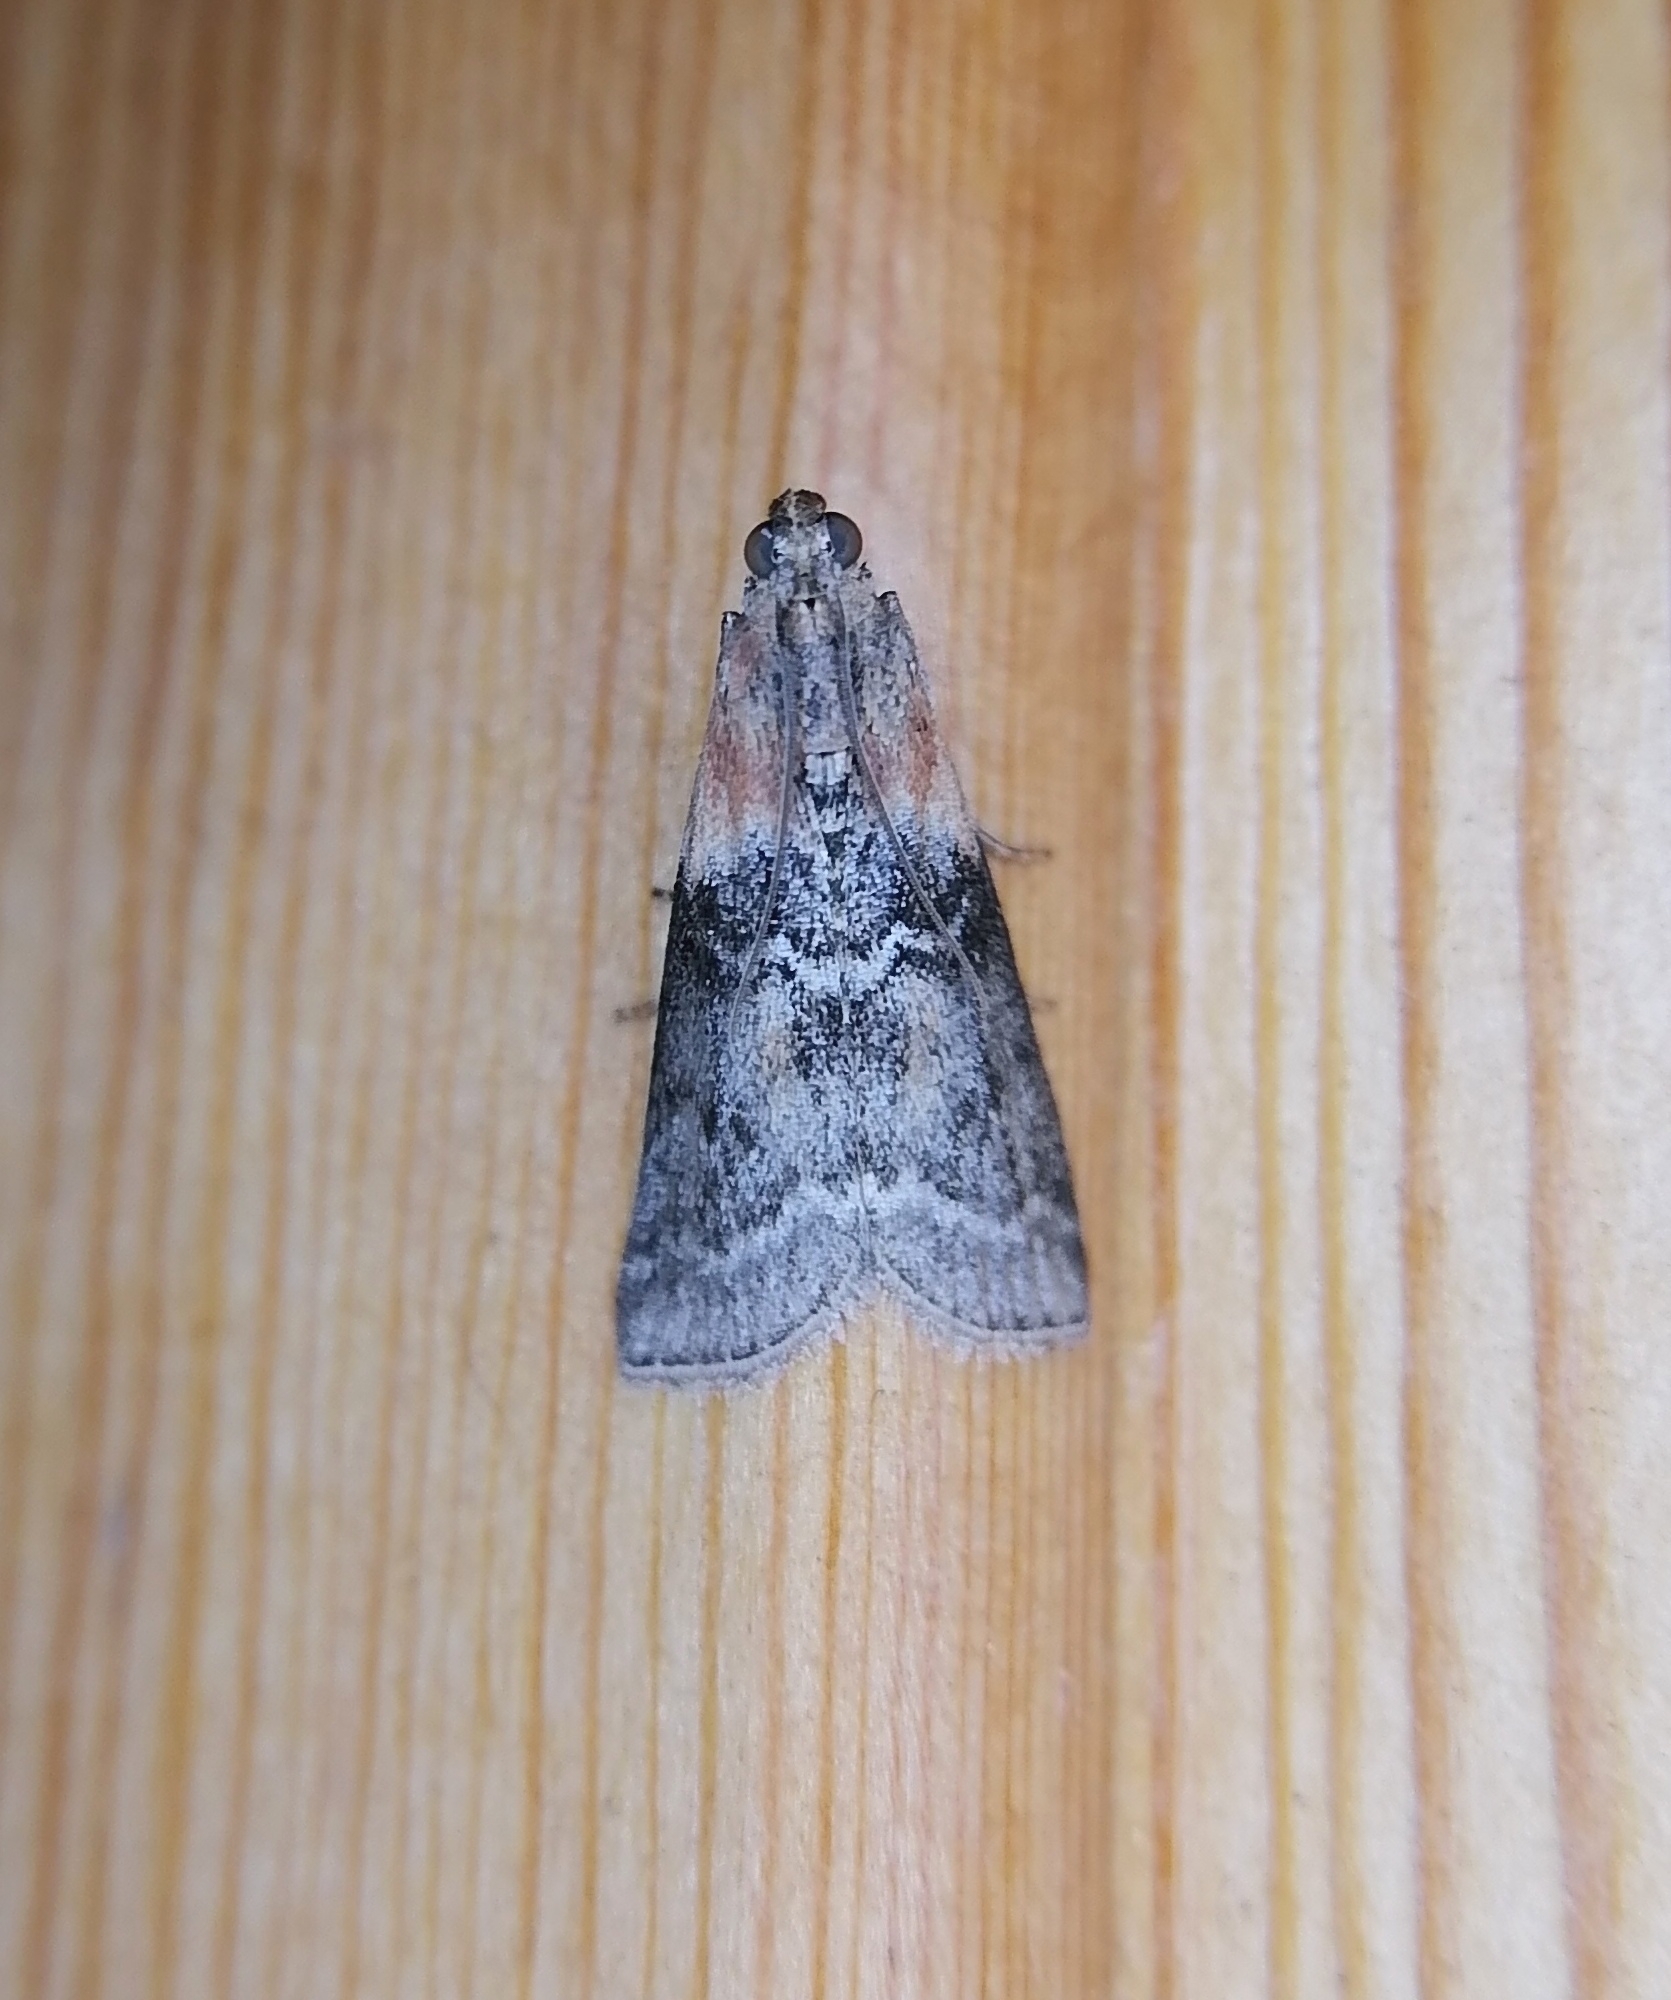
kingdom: Animalia
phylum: Arthropoda
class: Insecta
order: Lepidoptera
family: Pyralidae
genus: Sciota
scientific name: Sciota adelphella
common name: Willow knot-horn
